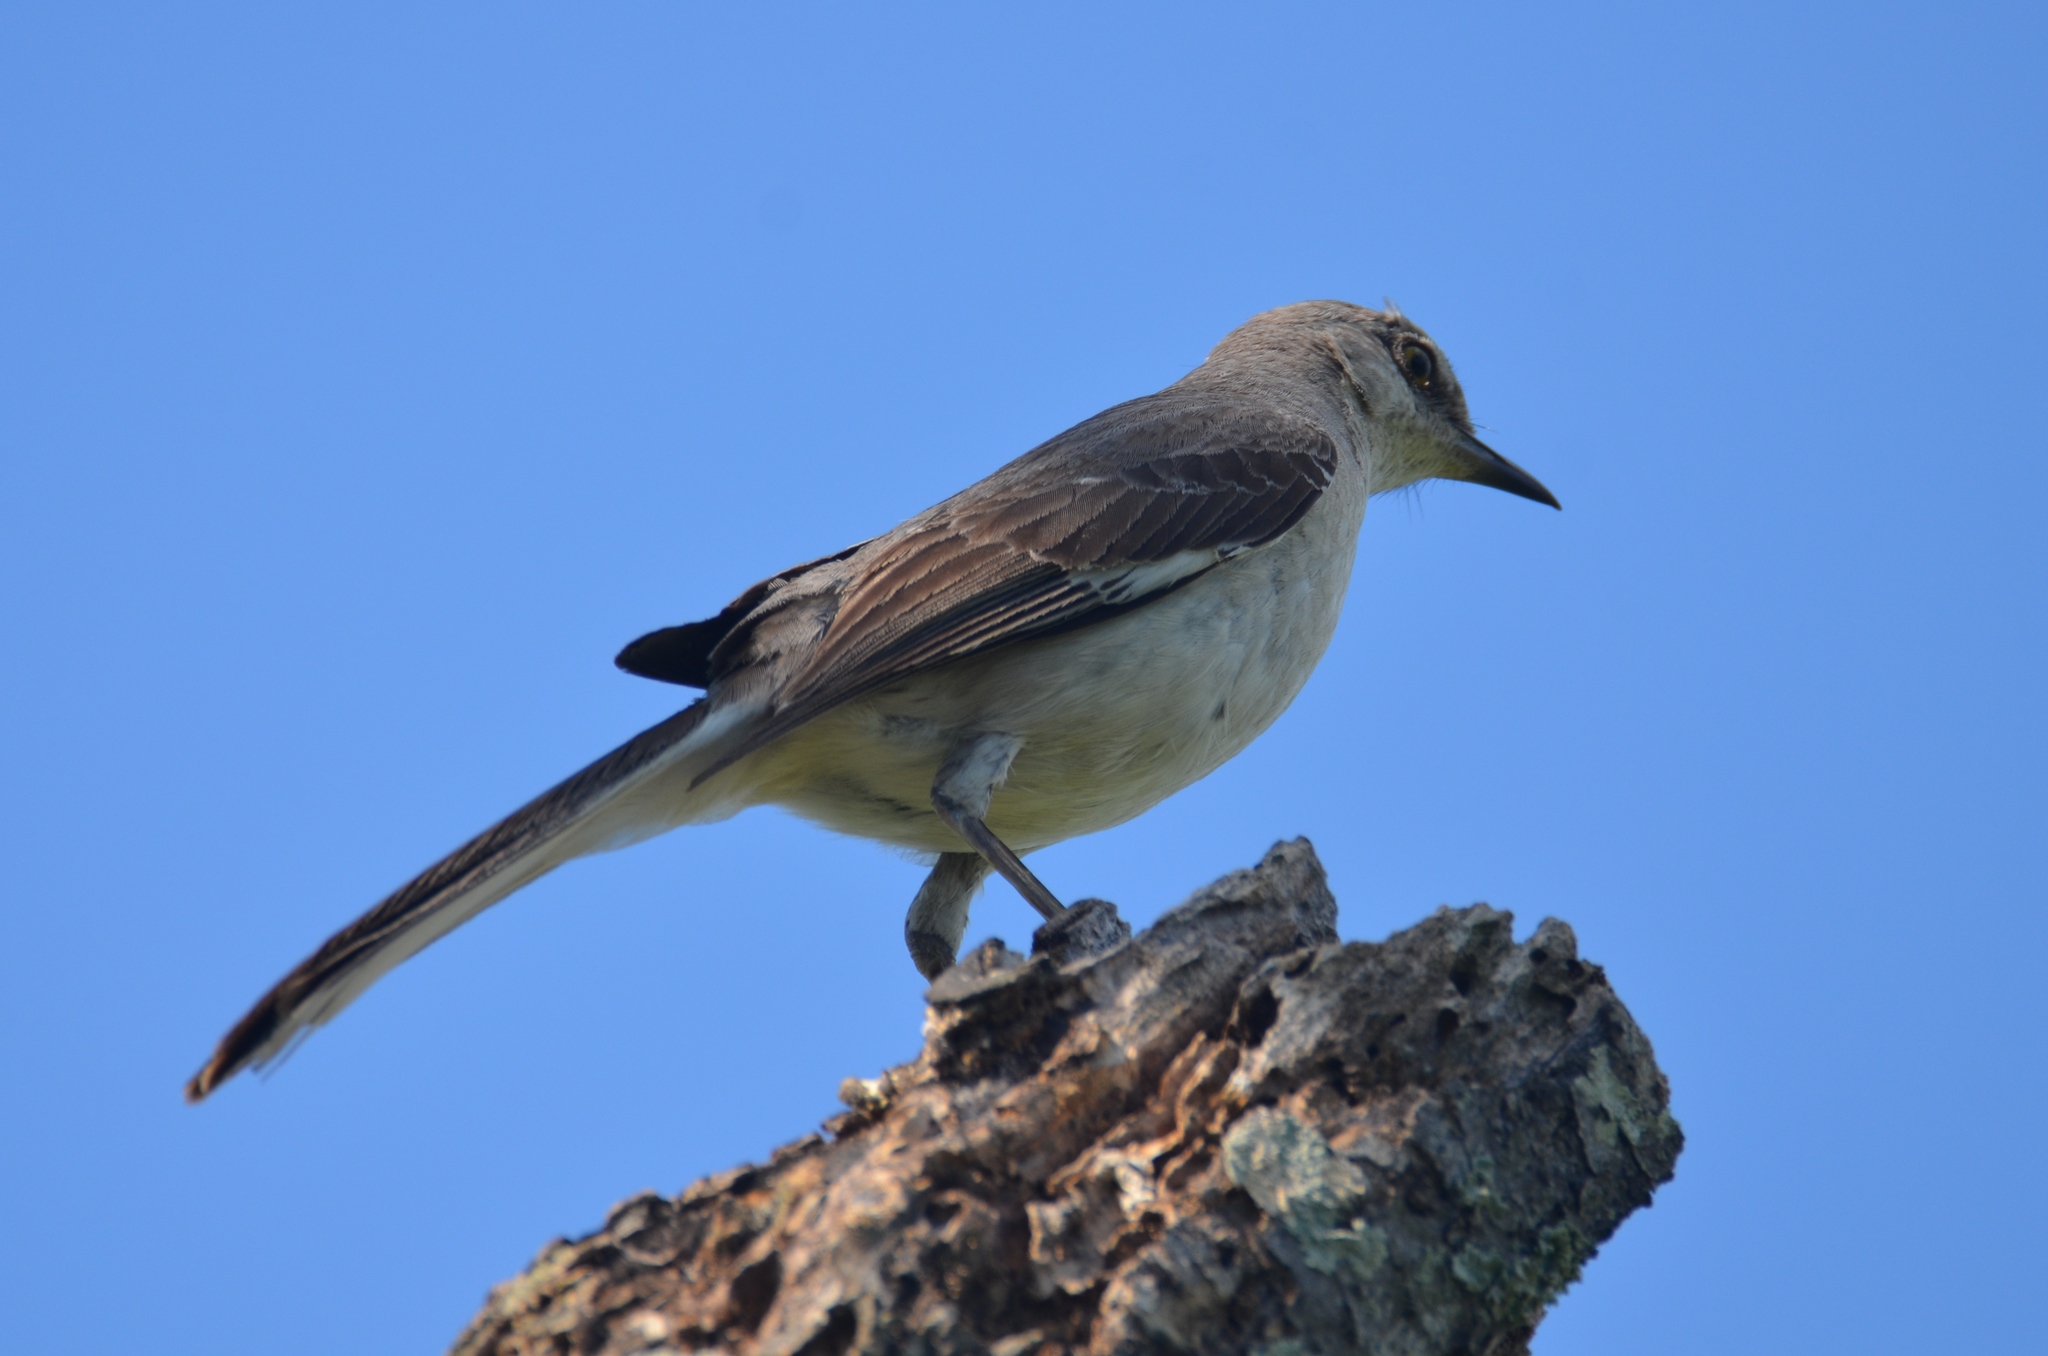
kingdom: Animalia
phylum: Chordata
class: Aves
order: Passeriformes
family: Mimidae
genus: Mimus
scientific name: Mimus polyglottos
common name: Northern mockingbird
